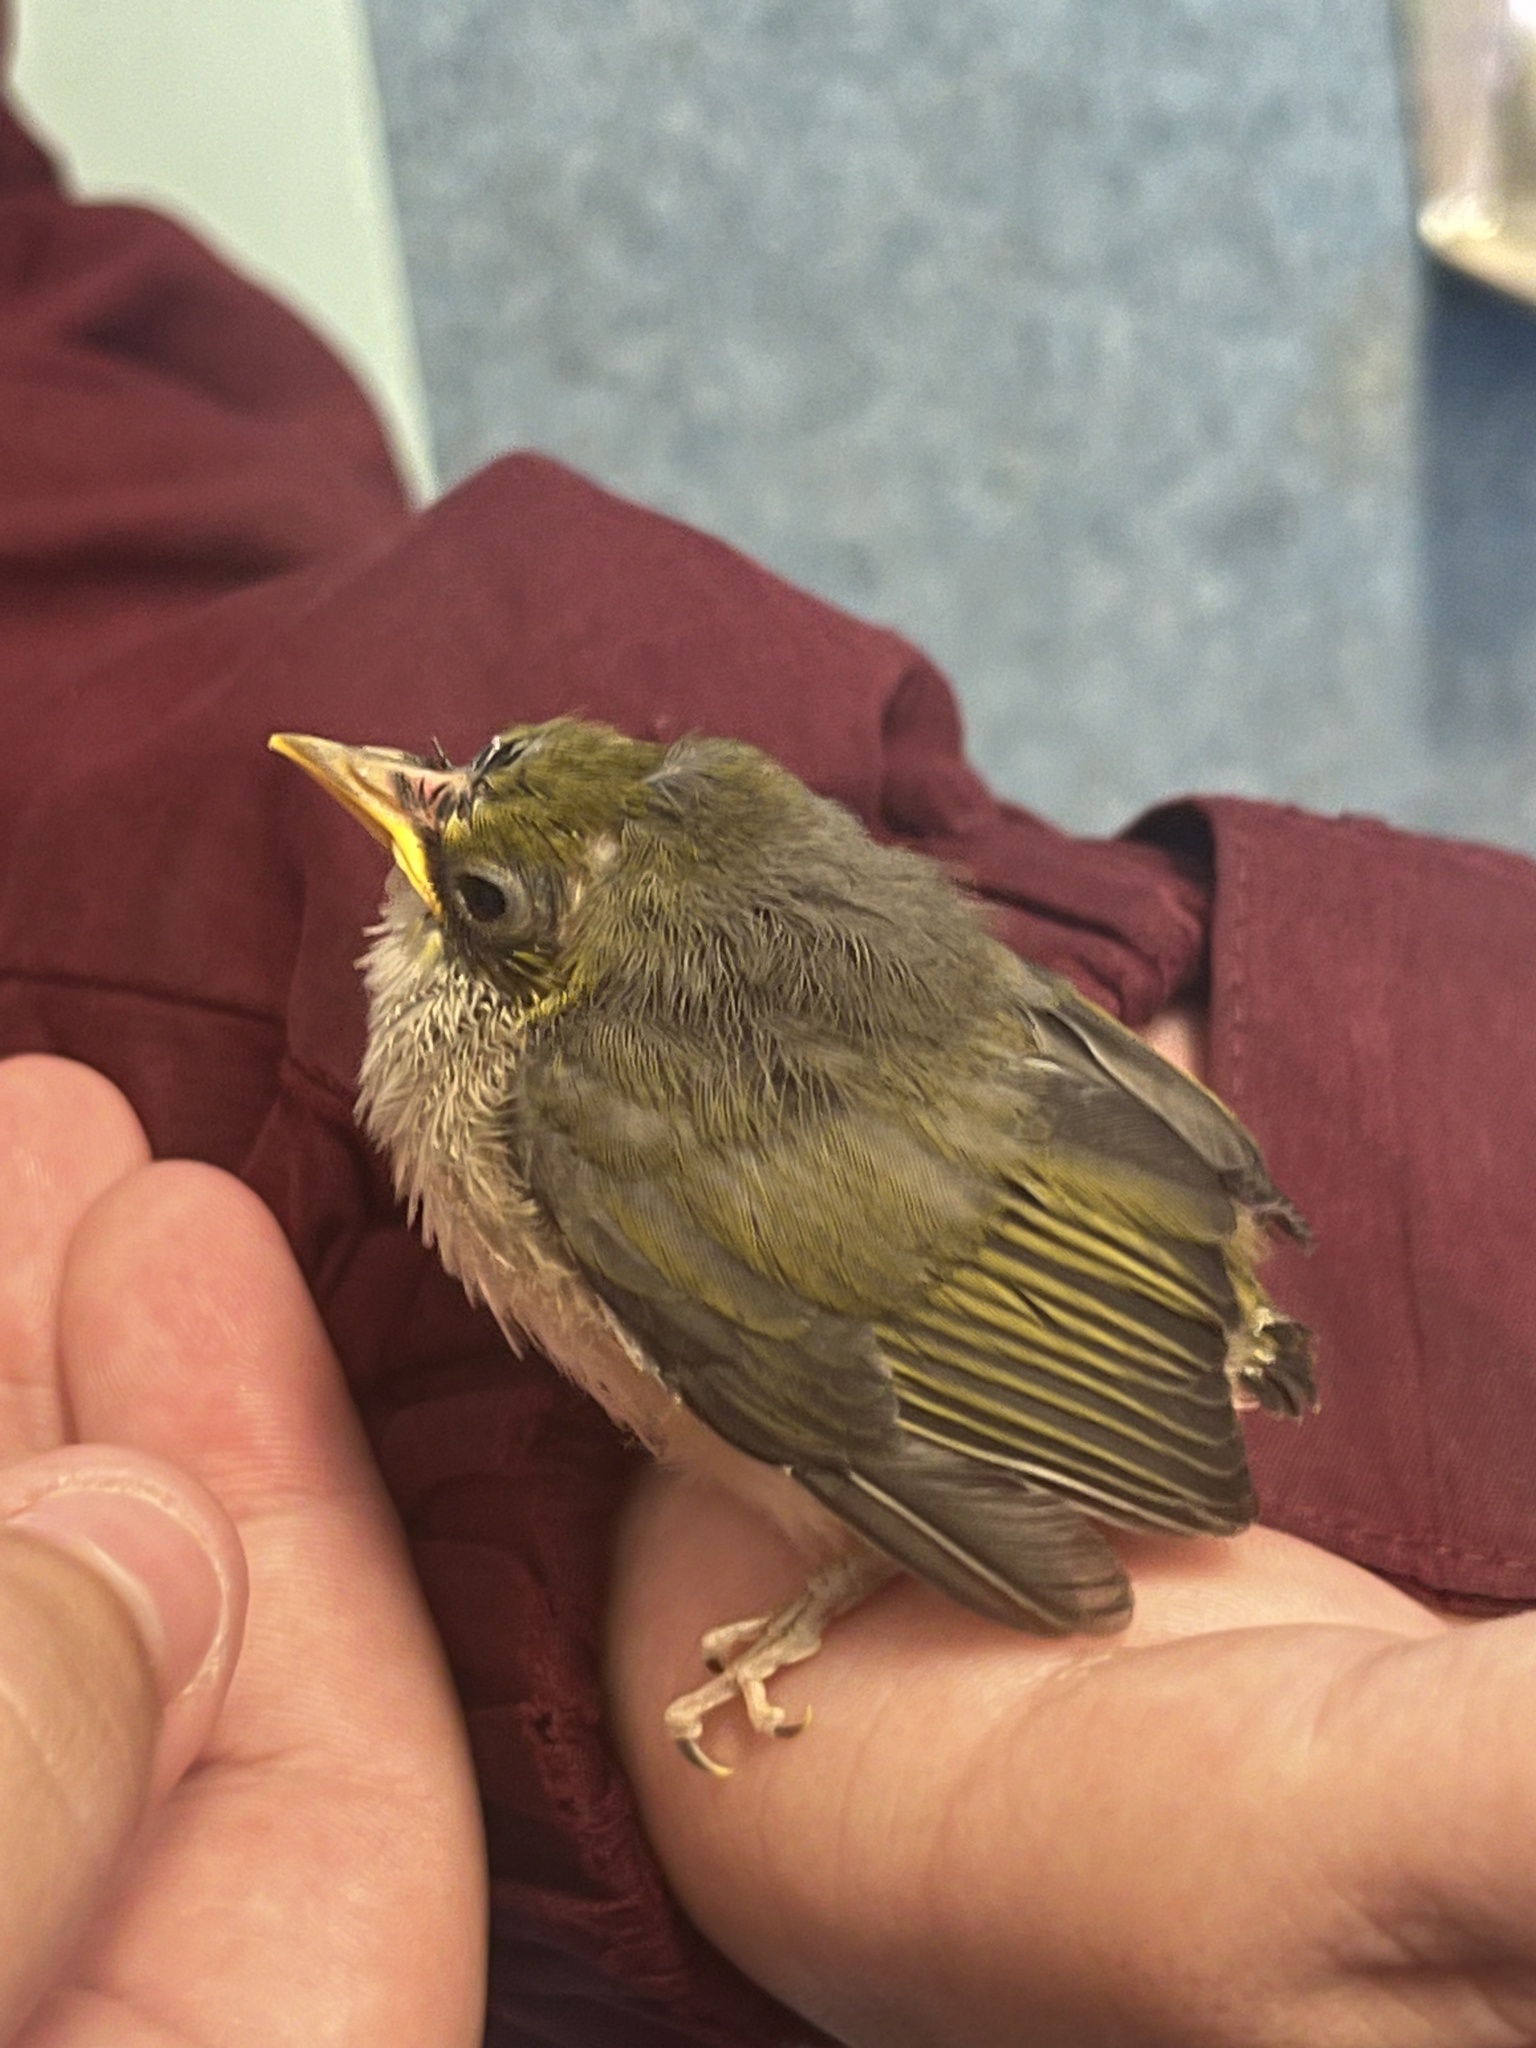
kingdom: Animalia
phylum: Chordata
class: Aves
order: Passeriformes
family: Zosteropidae
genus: Zosterops
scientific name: Zosterops lateralis
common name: Silvereye
